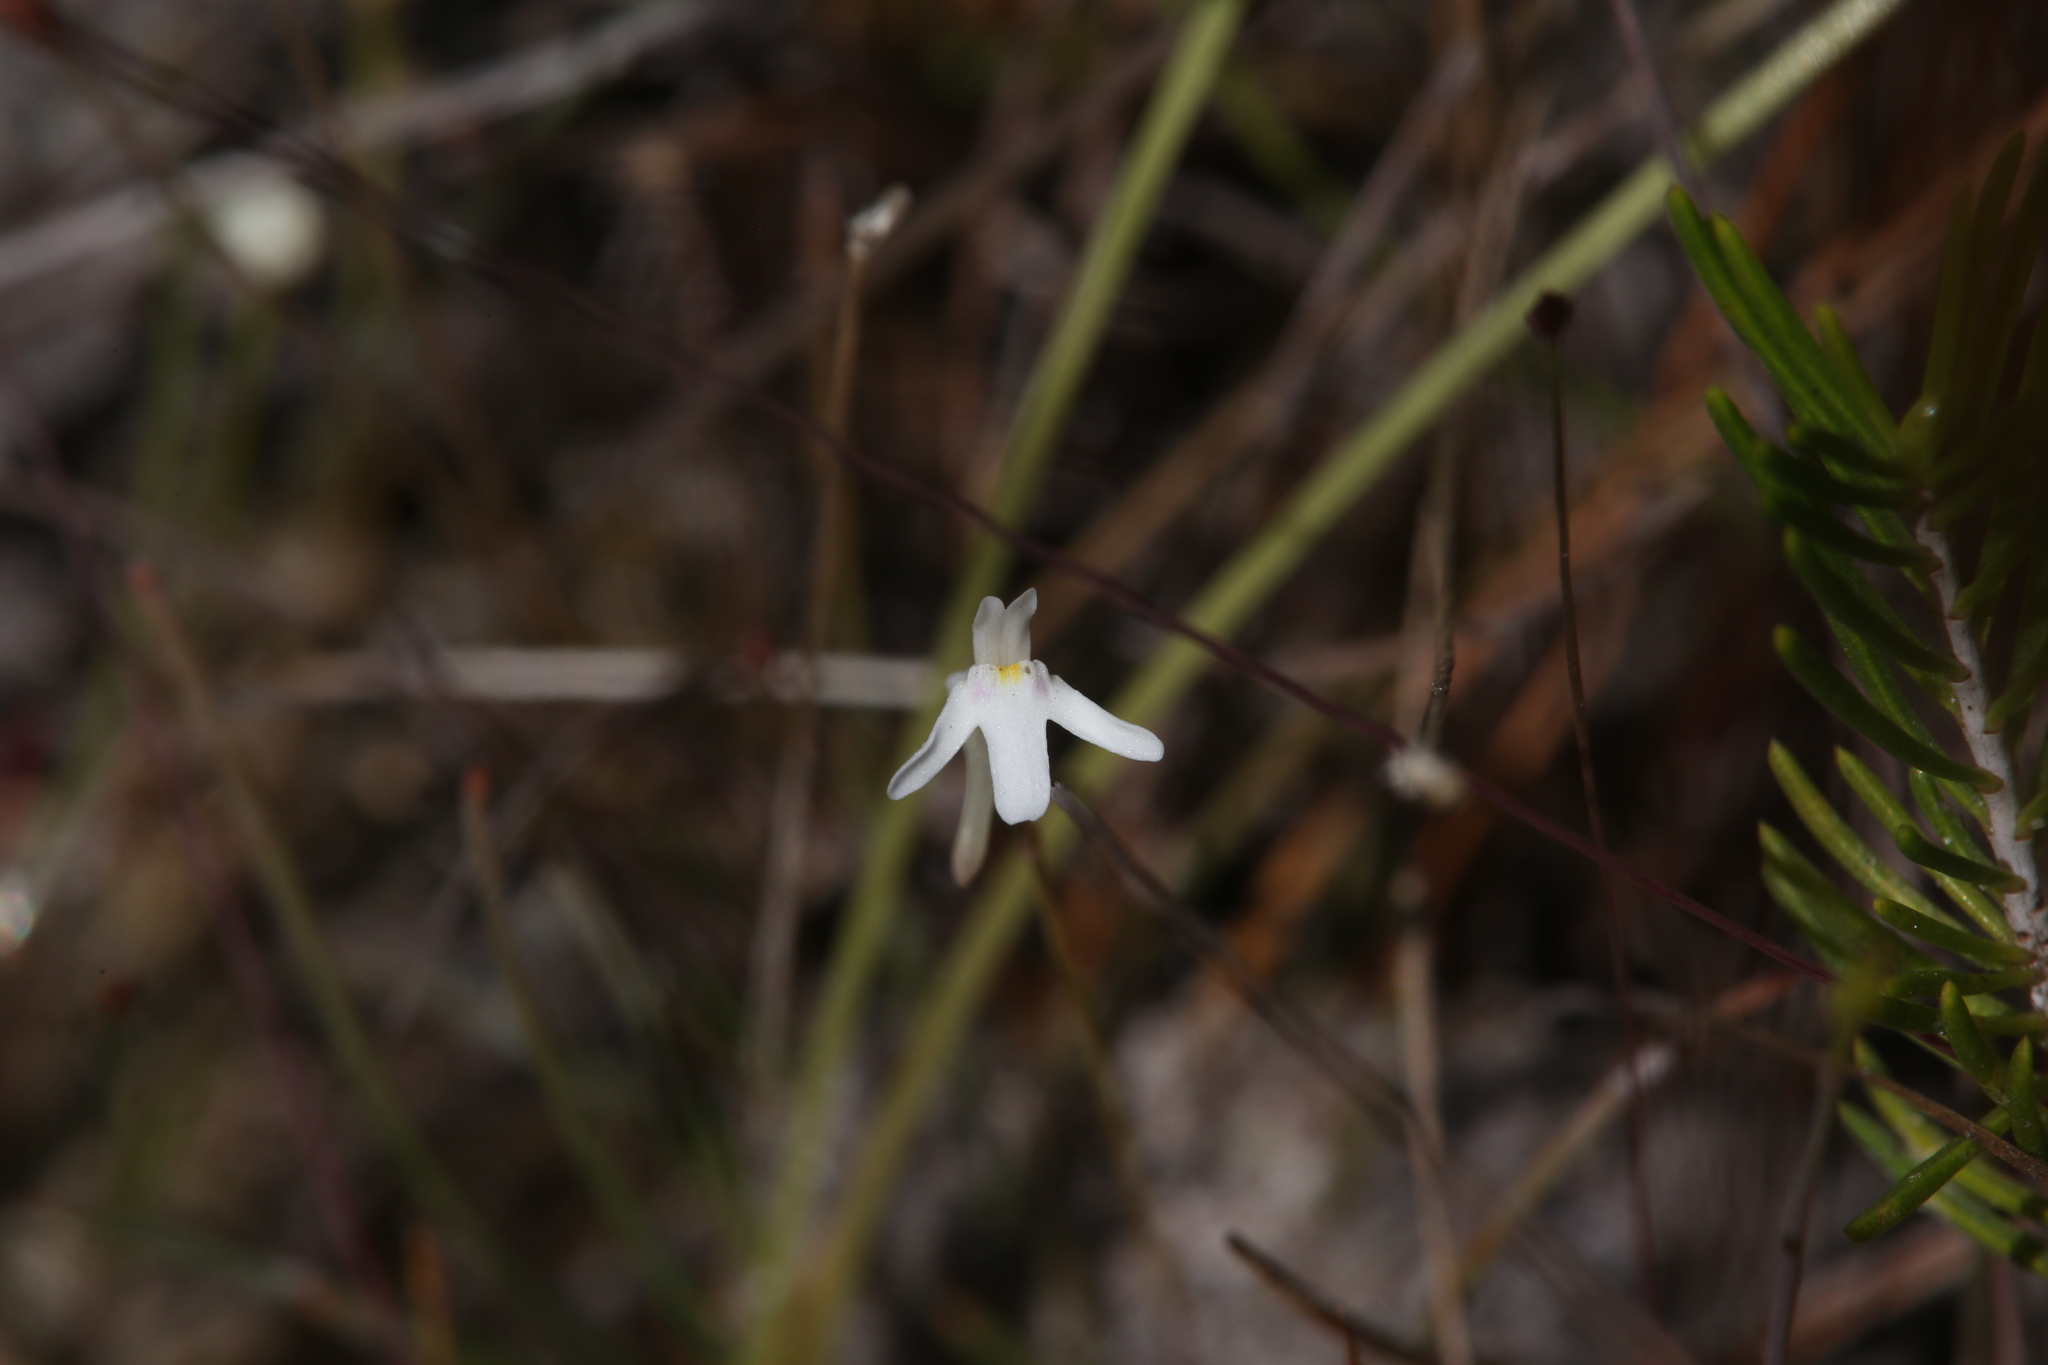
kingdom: Plantae
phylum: Tracheophyta
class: Magnoliopsida
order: Lamiales
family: Lentibulariaceae
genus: Utricularia
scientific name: Utricularia kamienskii
